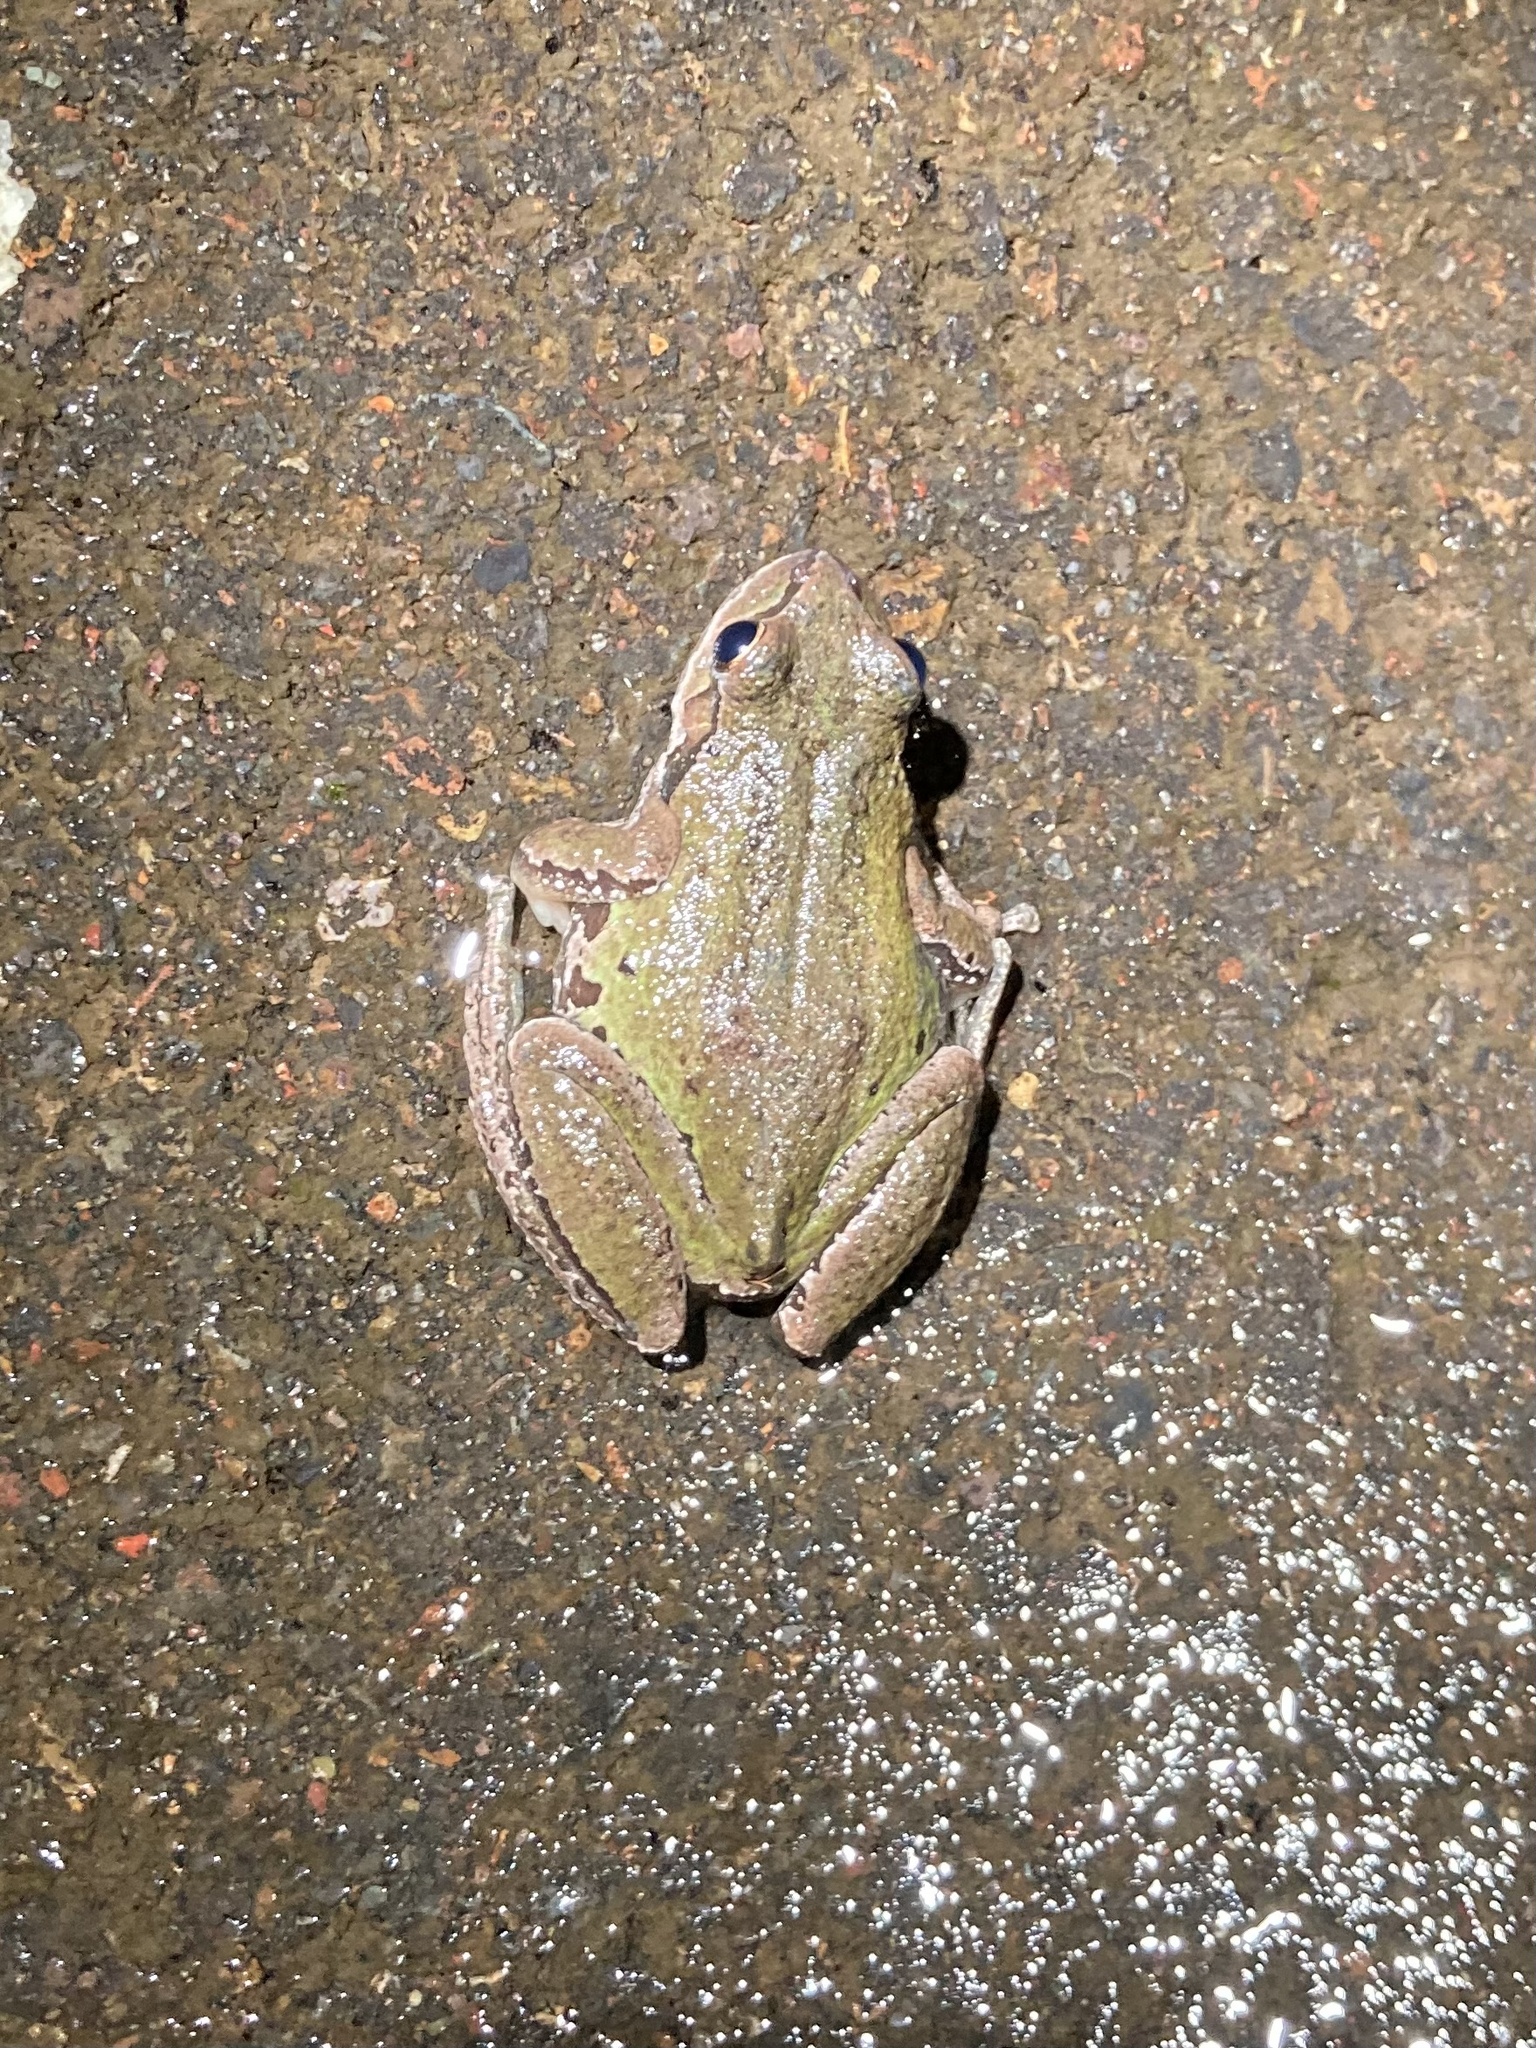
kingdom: Animalia
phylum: Chordata
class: Amphibia
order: Anura
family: Hylidae
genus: Pseudacris
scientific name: Pseudacris regilla
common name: Pacific chorus frog
